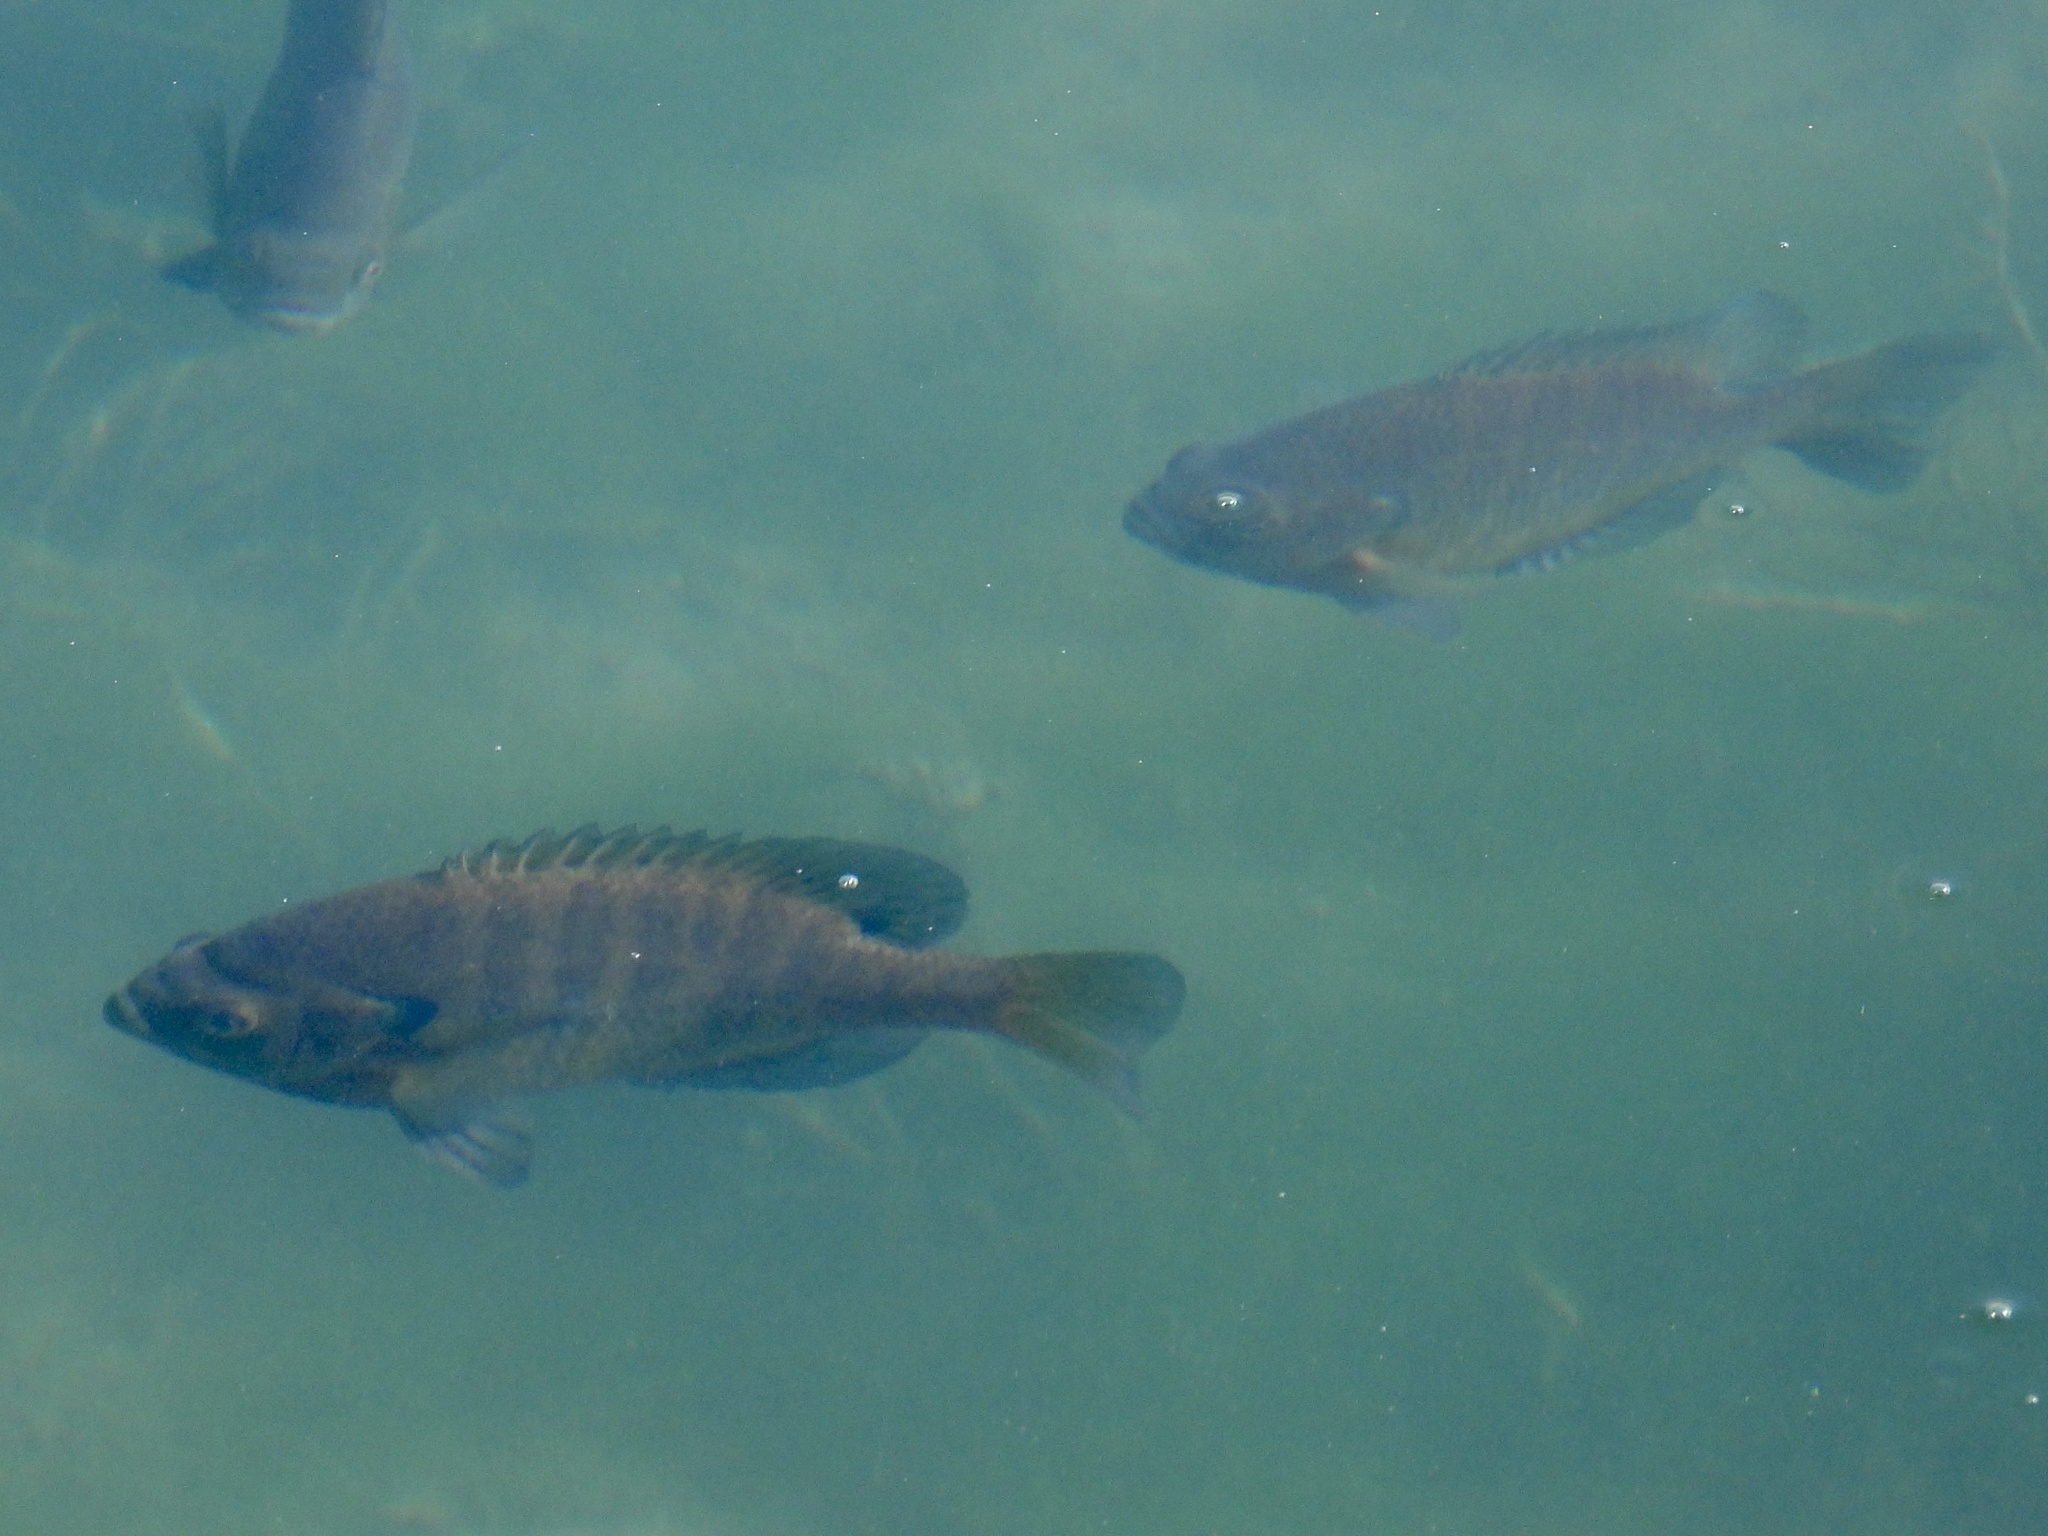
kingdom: Animalia
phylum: Chordata
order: Perciformes
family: Centrarchidae
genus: Lepomis
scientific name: Lepomis macrochirus
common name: Bluegill
